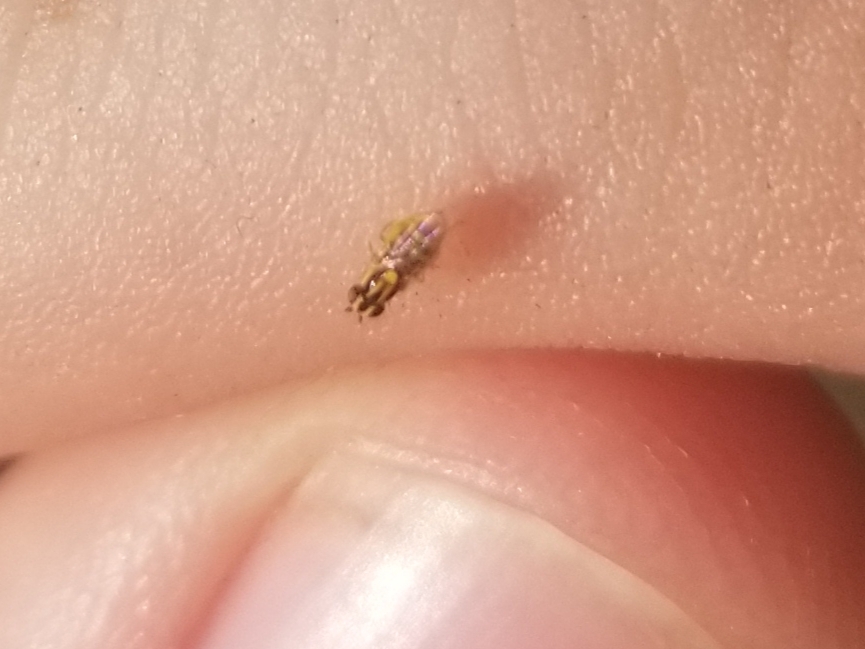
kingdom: Animalia
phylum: Arthropoda
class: Insecta
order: Diptera
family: Chloropidae
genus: Thaumatomyia
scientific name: Thaumatomyia glabra
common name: Chloropid fly
